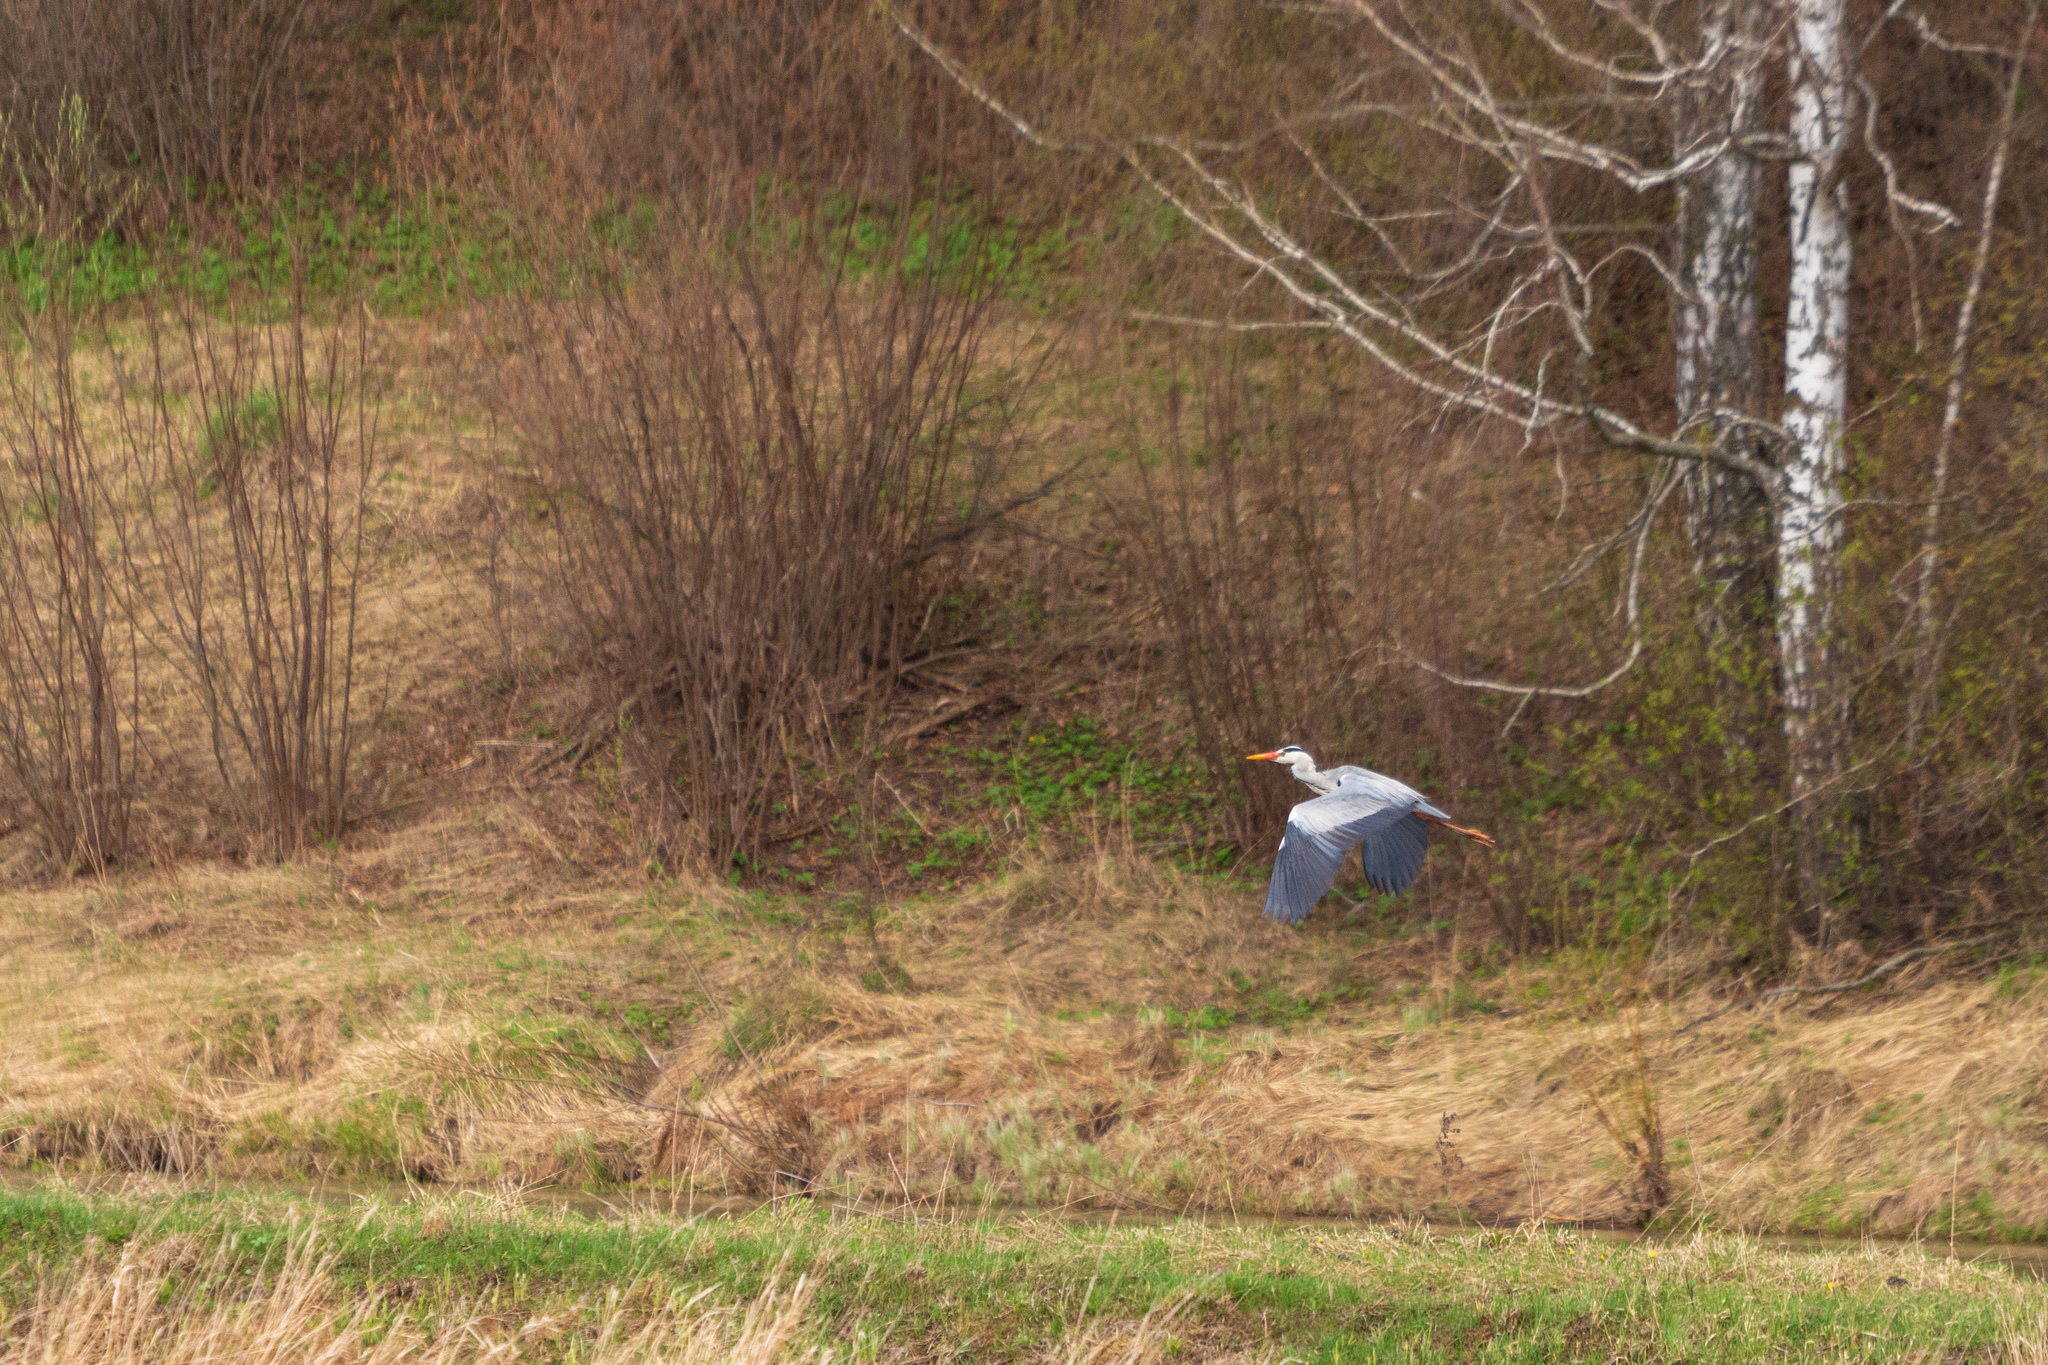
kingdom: Animalia
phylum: Chordata
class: Aves
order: Pelecaniformes
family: Ardeidae
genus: Ardea
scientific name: Ardea cinerea
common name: Grey heron
